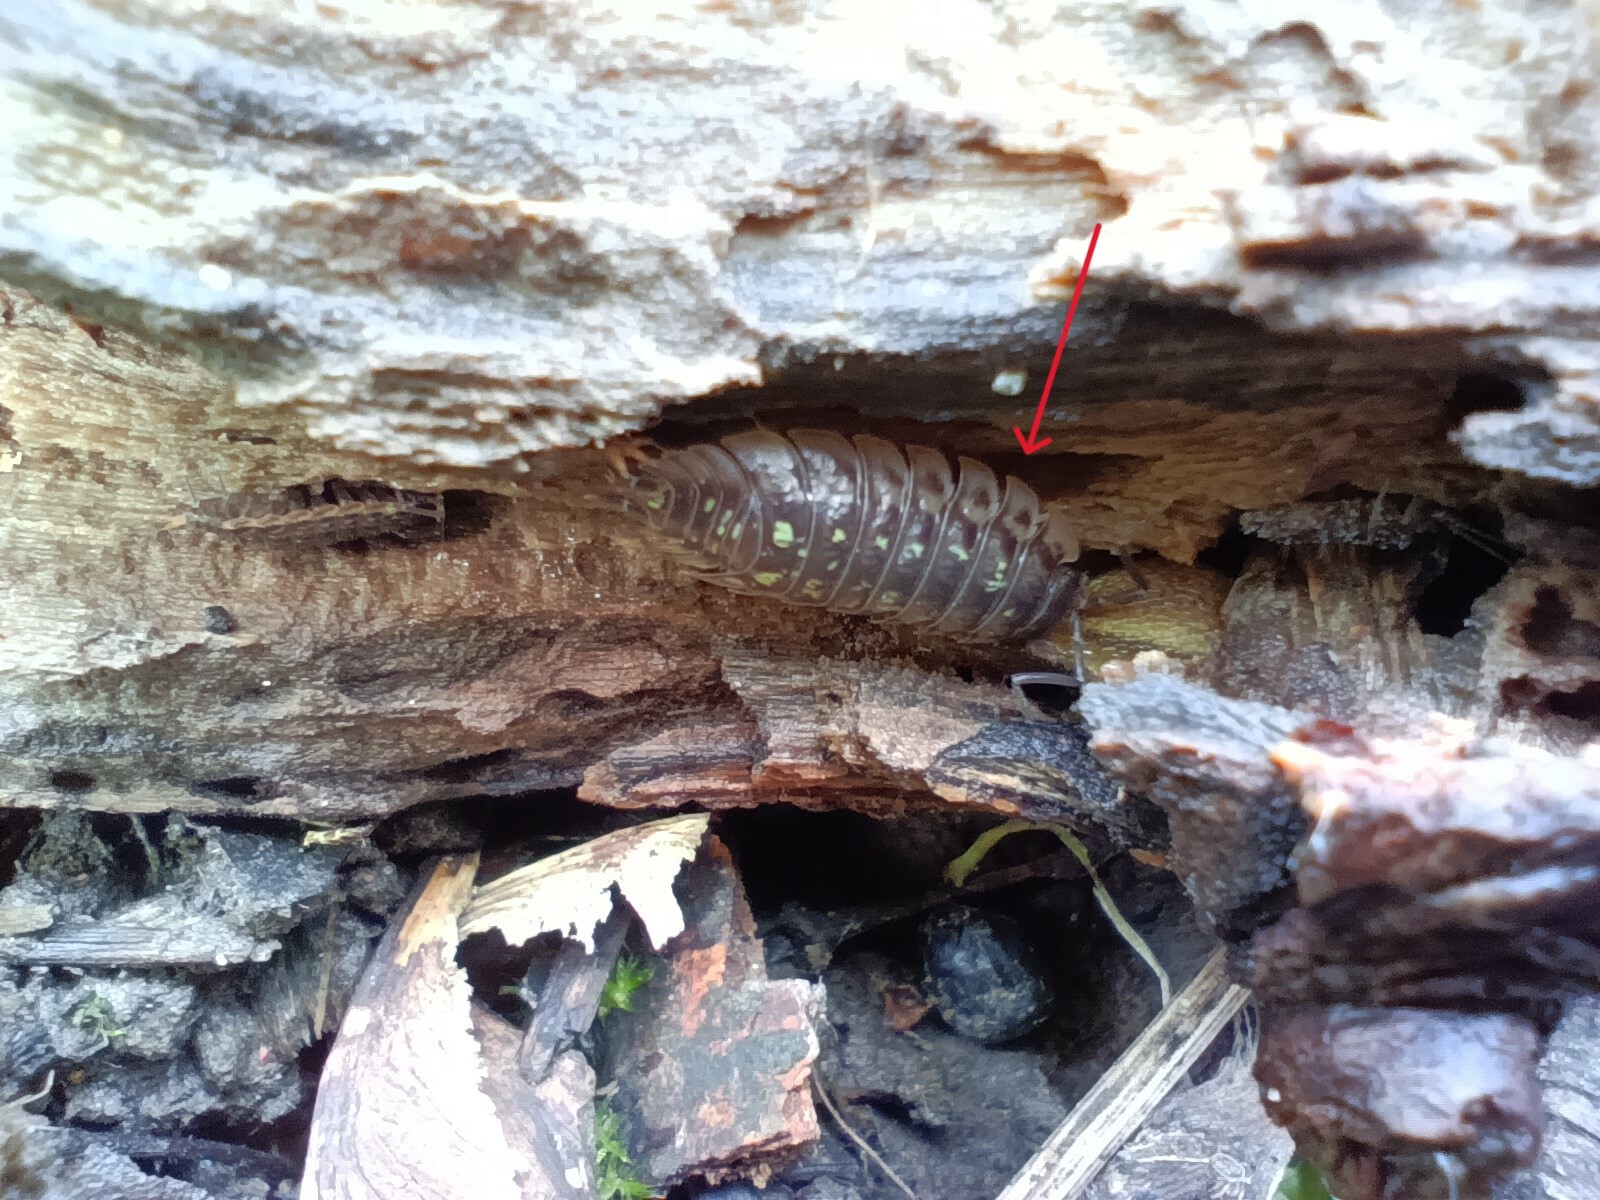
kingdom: Animalia
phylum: Arthropoda
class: Malacostraca
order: Isopoda
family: Oniscidae
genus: Oniscus
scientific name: Oniscus asellus
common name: Common shiny woodlouse
